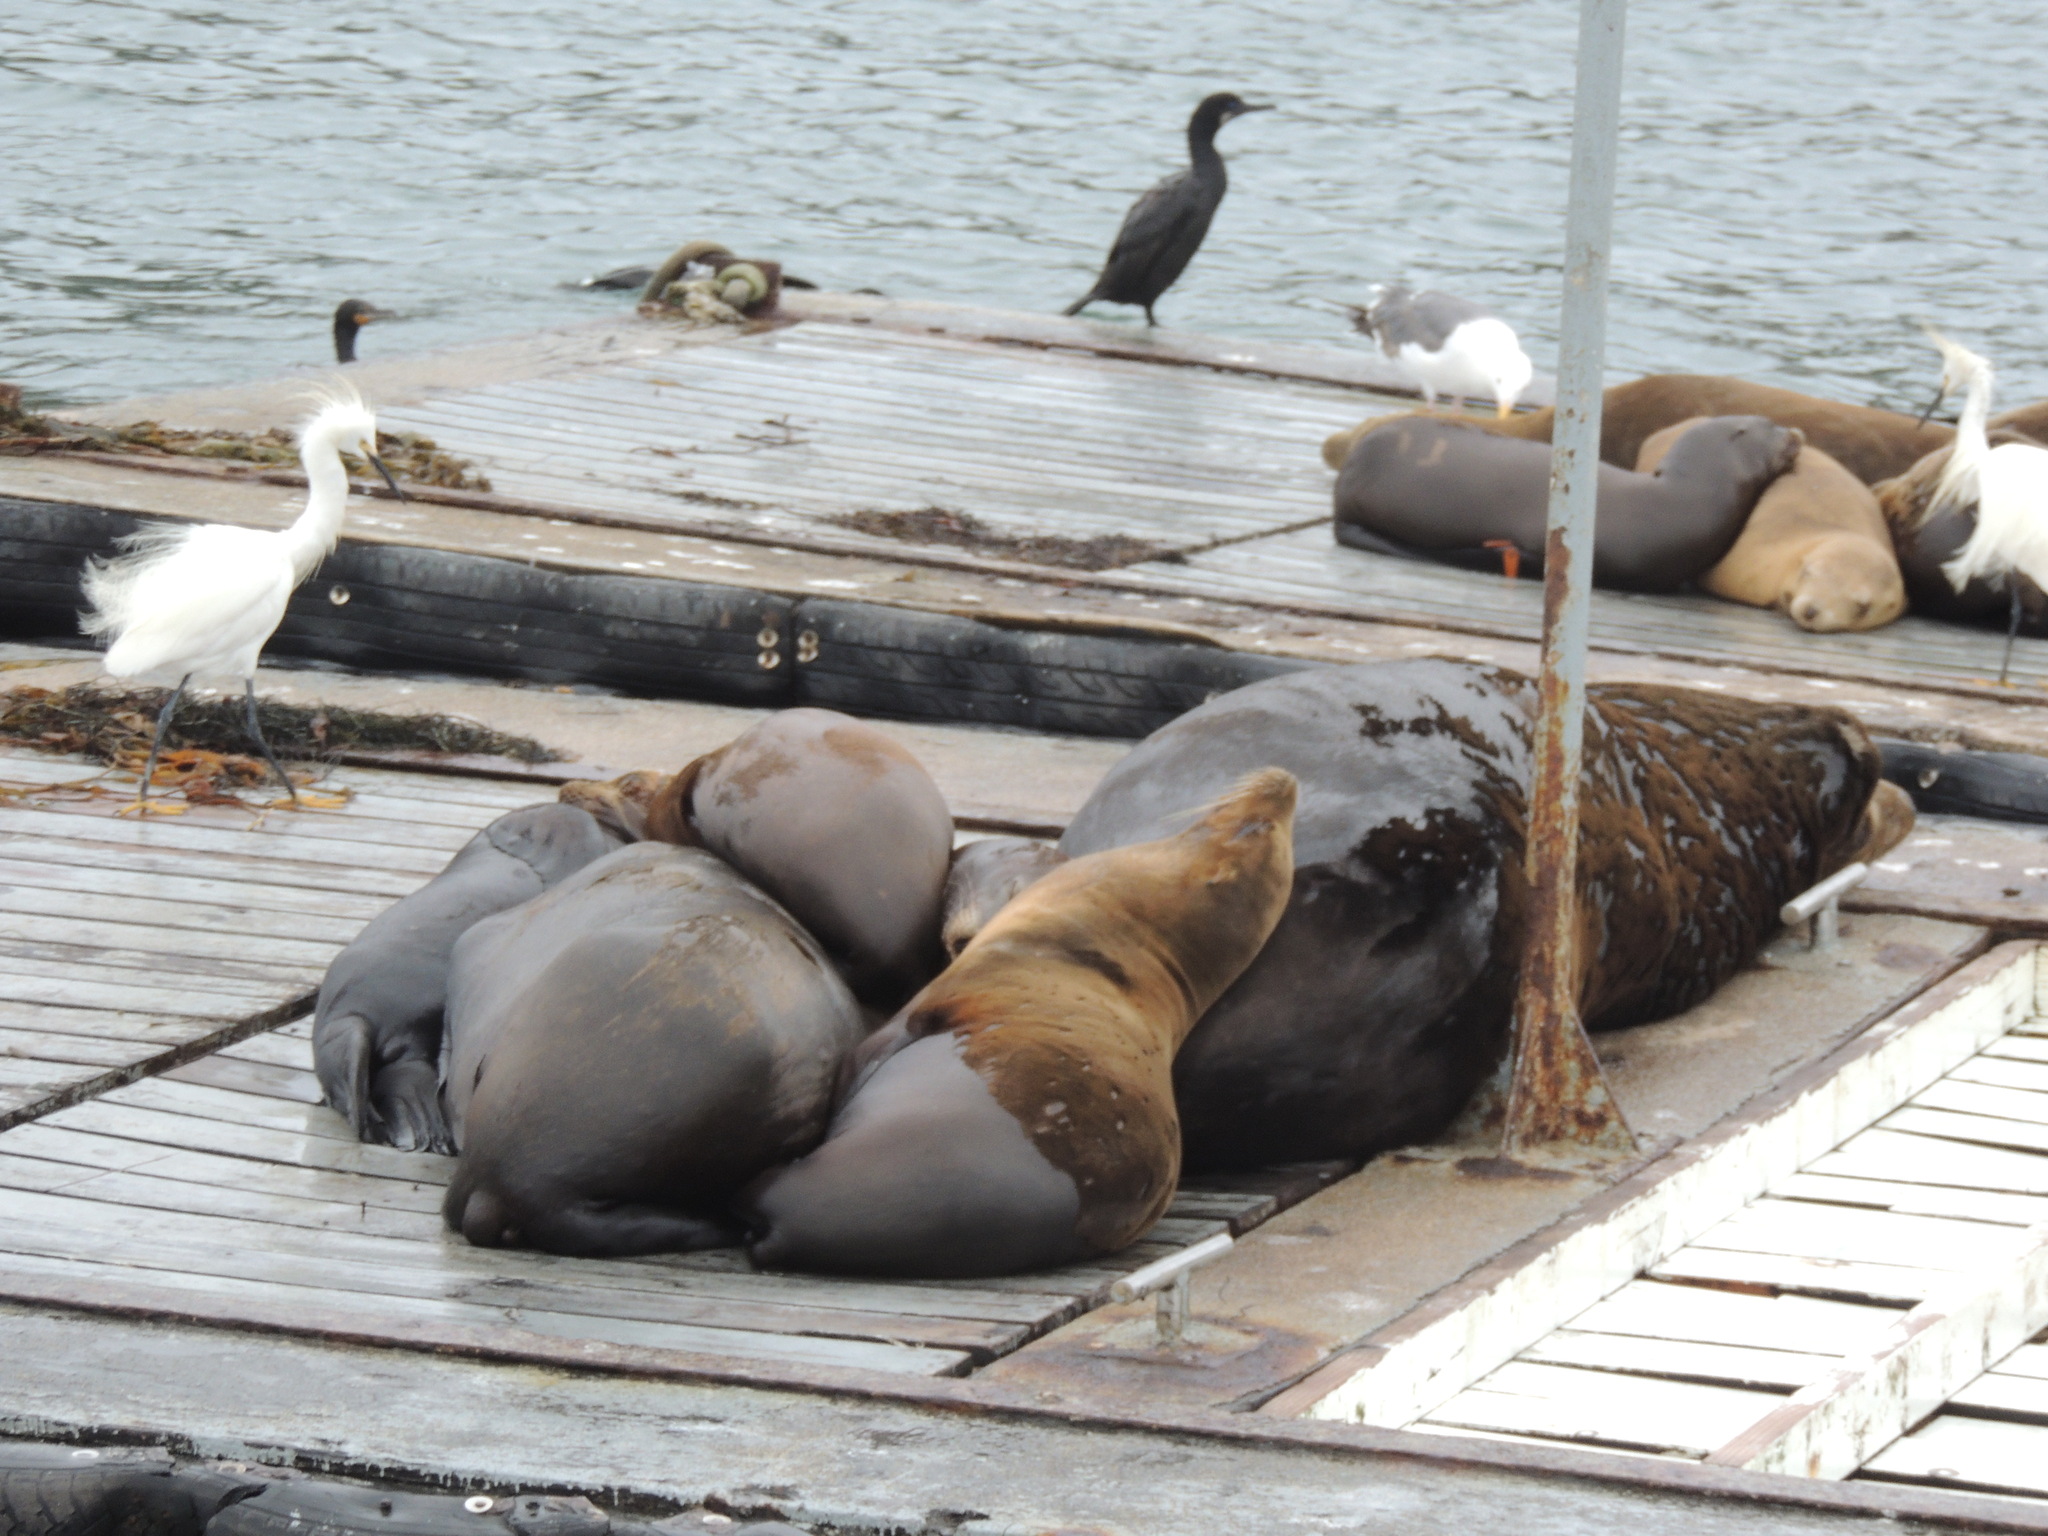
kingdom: Animalia
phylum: Chordata
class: Aves
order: Suliformes
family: Phalacrocoracidae
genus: Urile
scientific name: Urile penicillatus
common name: Brandt's cormorant
